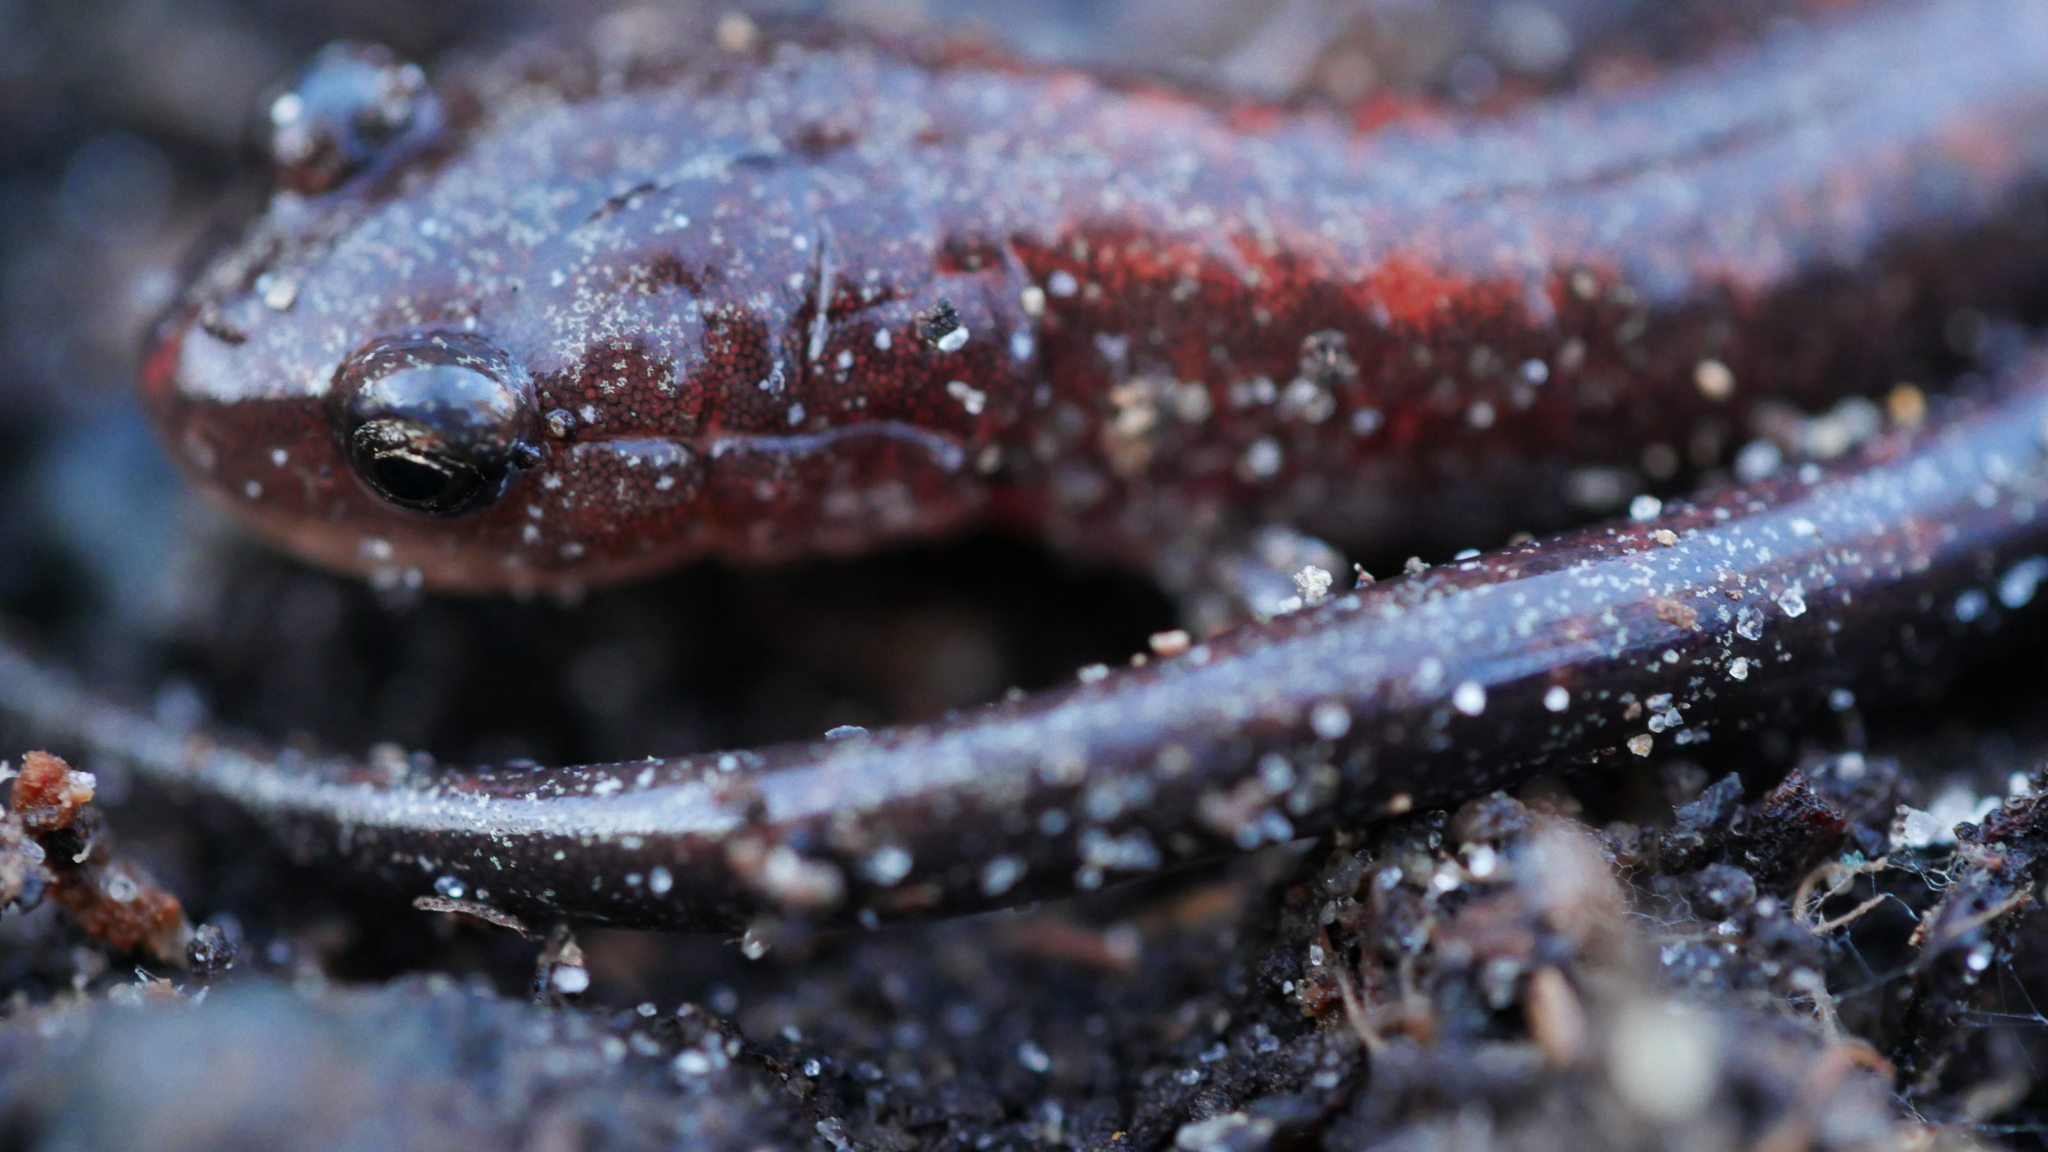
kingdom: Animalia
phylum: Chordata
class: Amphibia
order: Caudata
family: Plethodontidae
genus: Plethodon
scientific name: Plethodon cinereus
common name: Redback salamander
